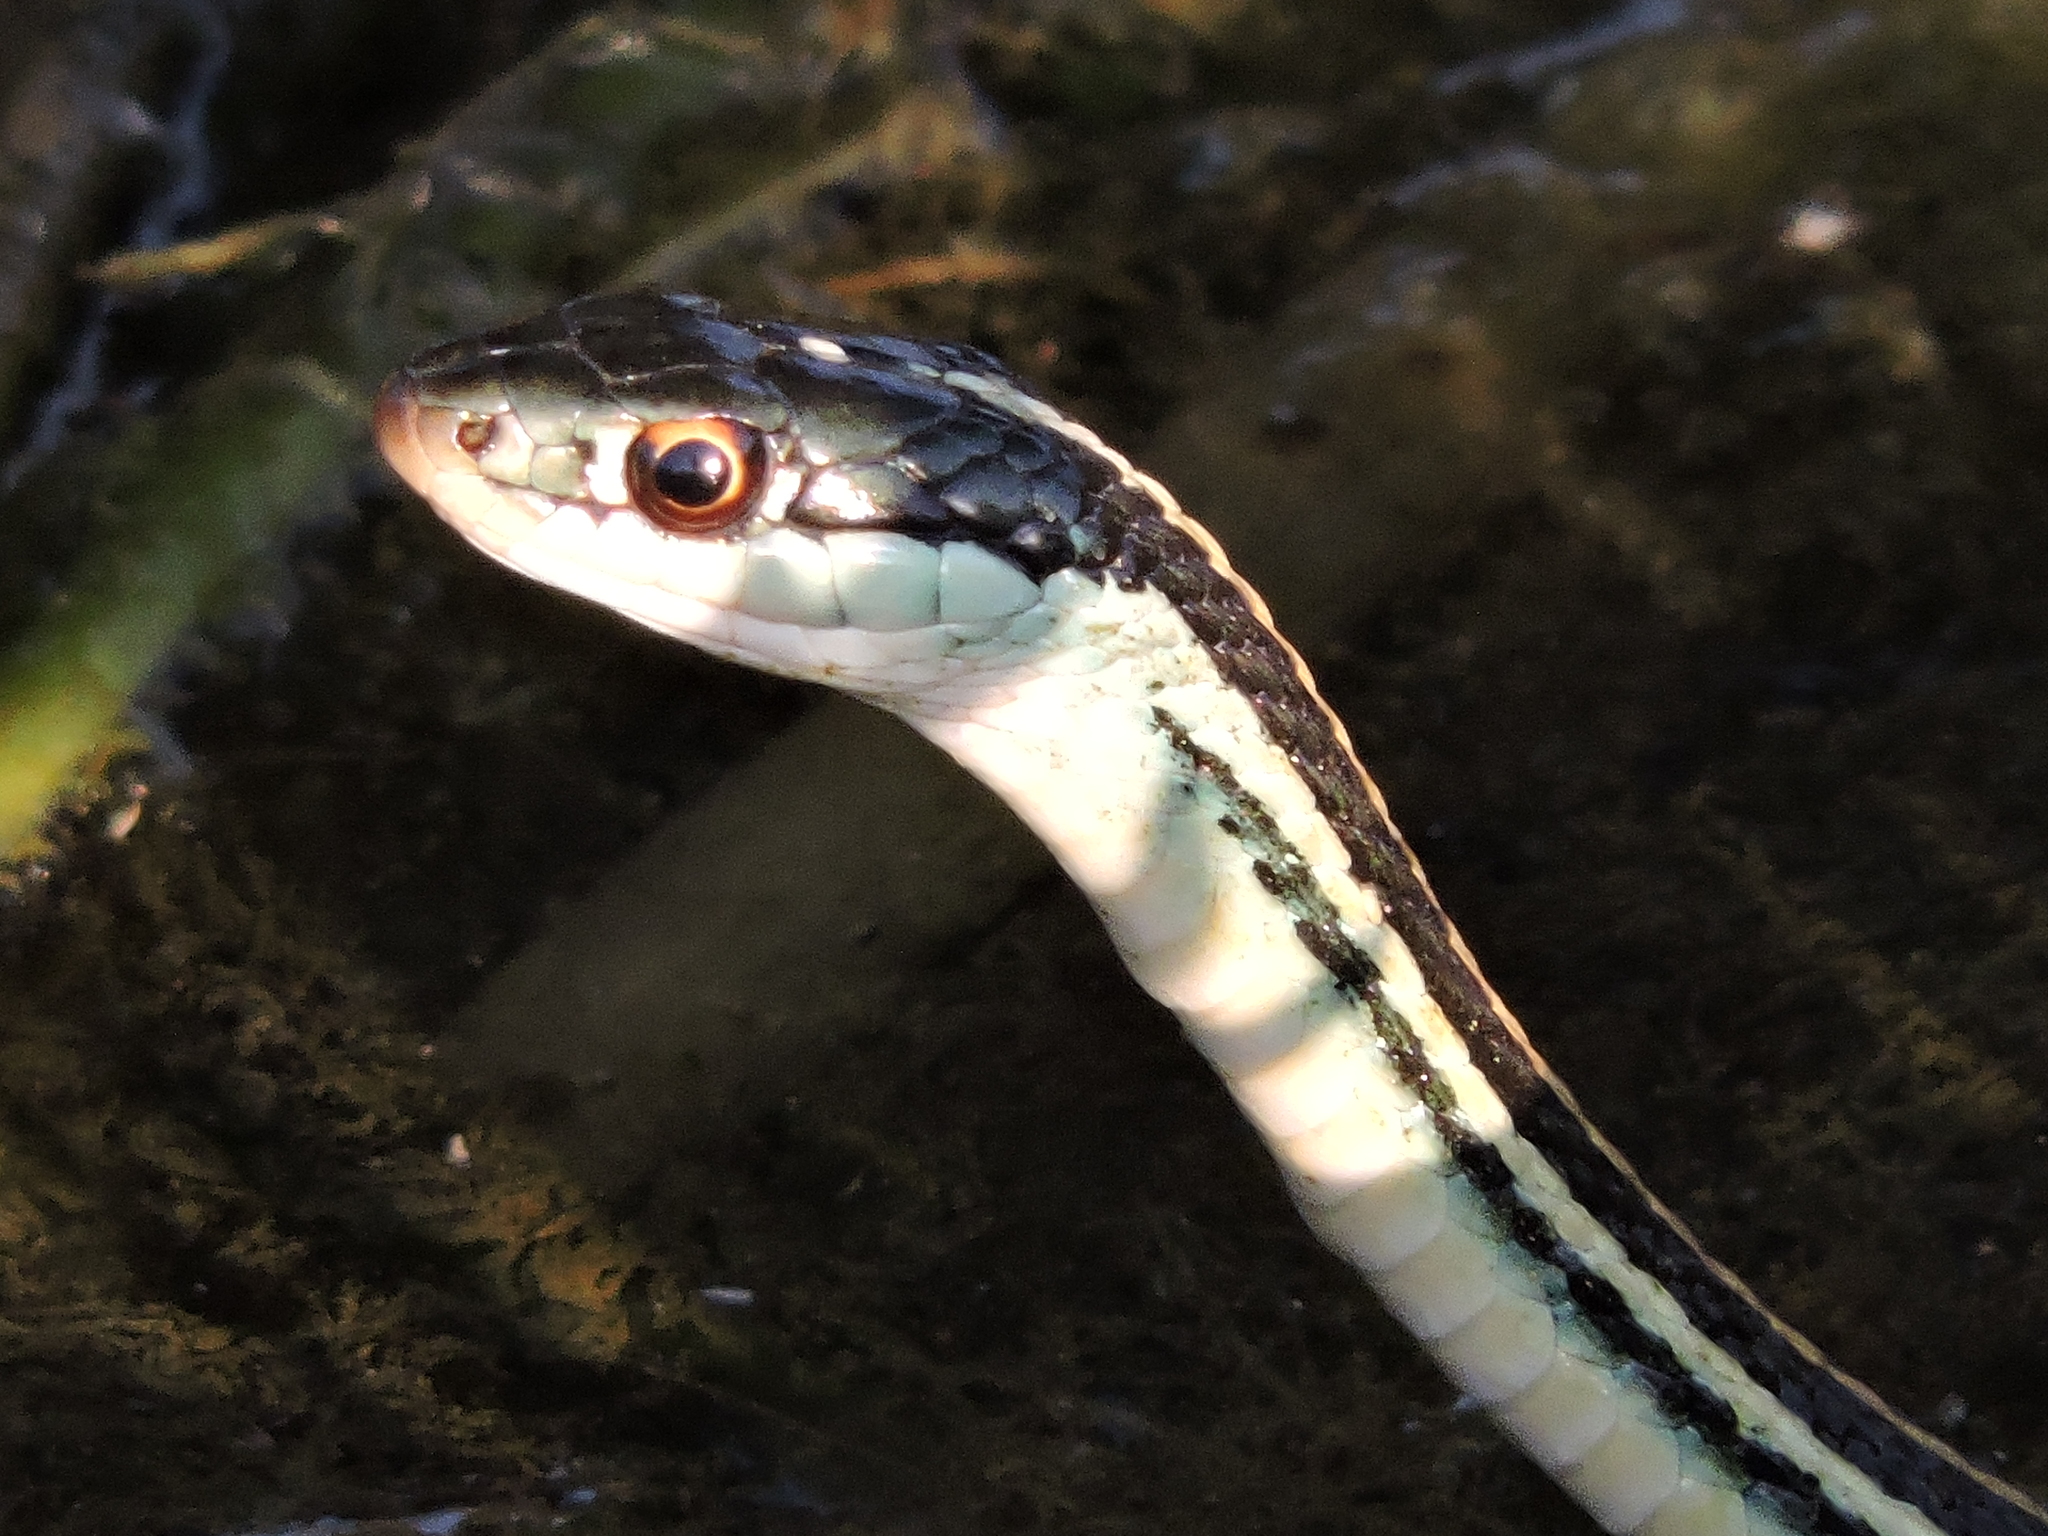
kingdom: Animalia
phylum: Chordata
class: Squamata
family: Colubridae
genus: Thamnophis
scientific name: Thamnophis proximus
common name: Western ribbon snake
